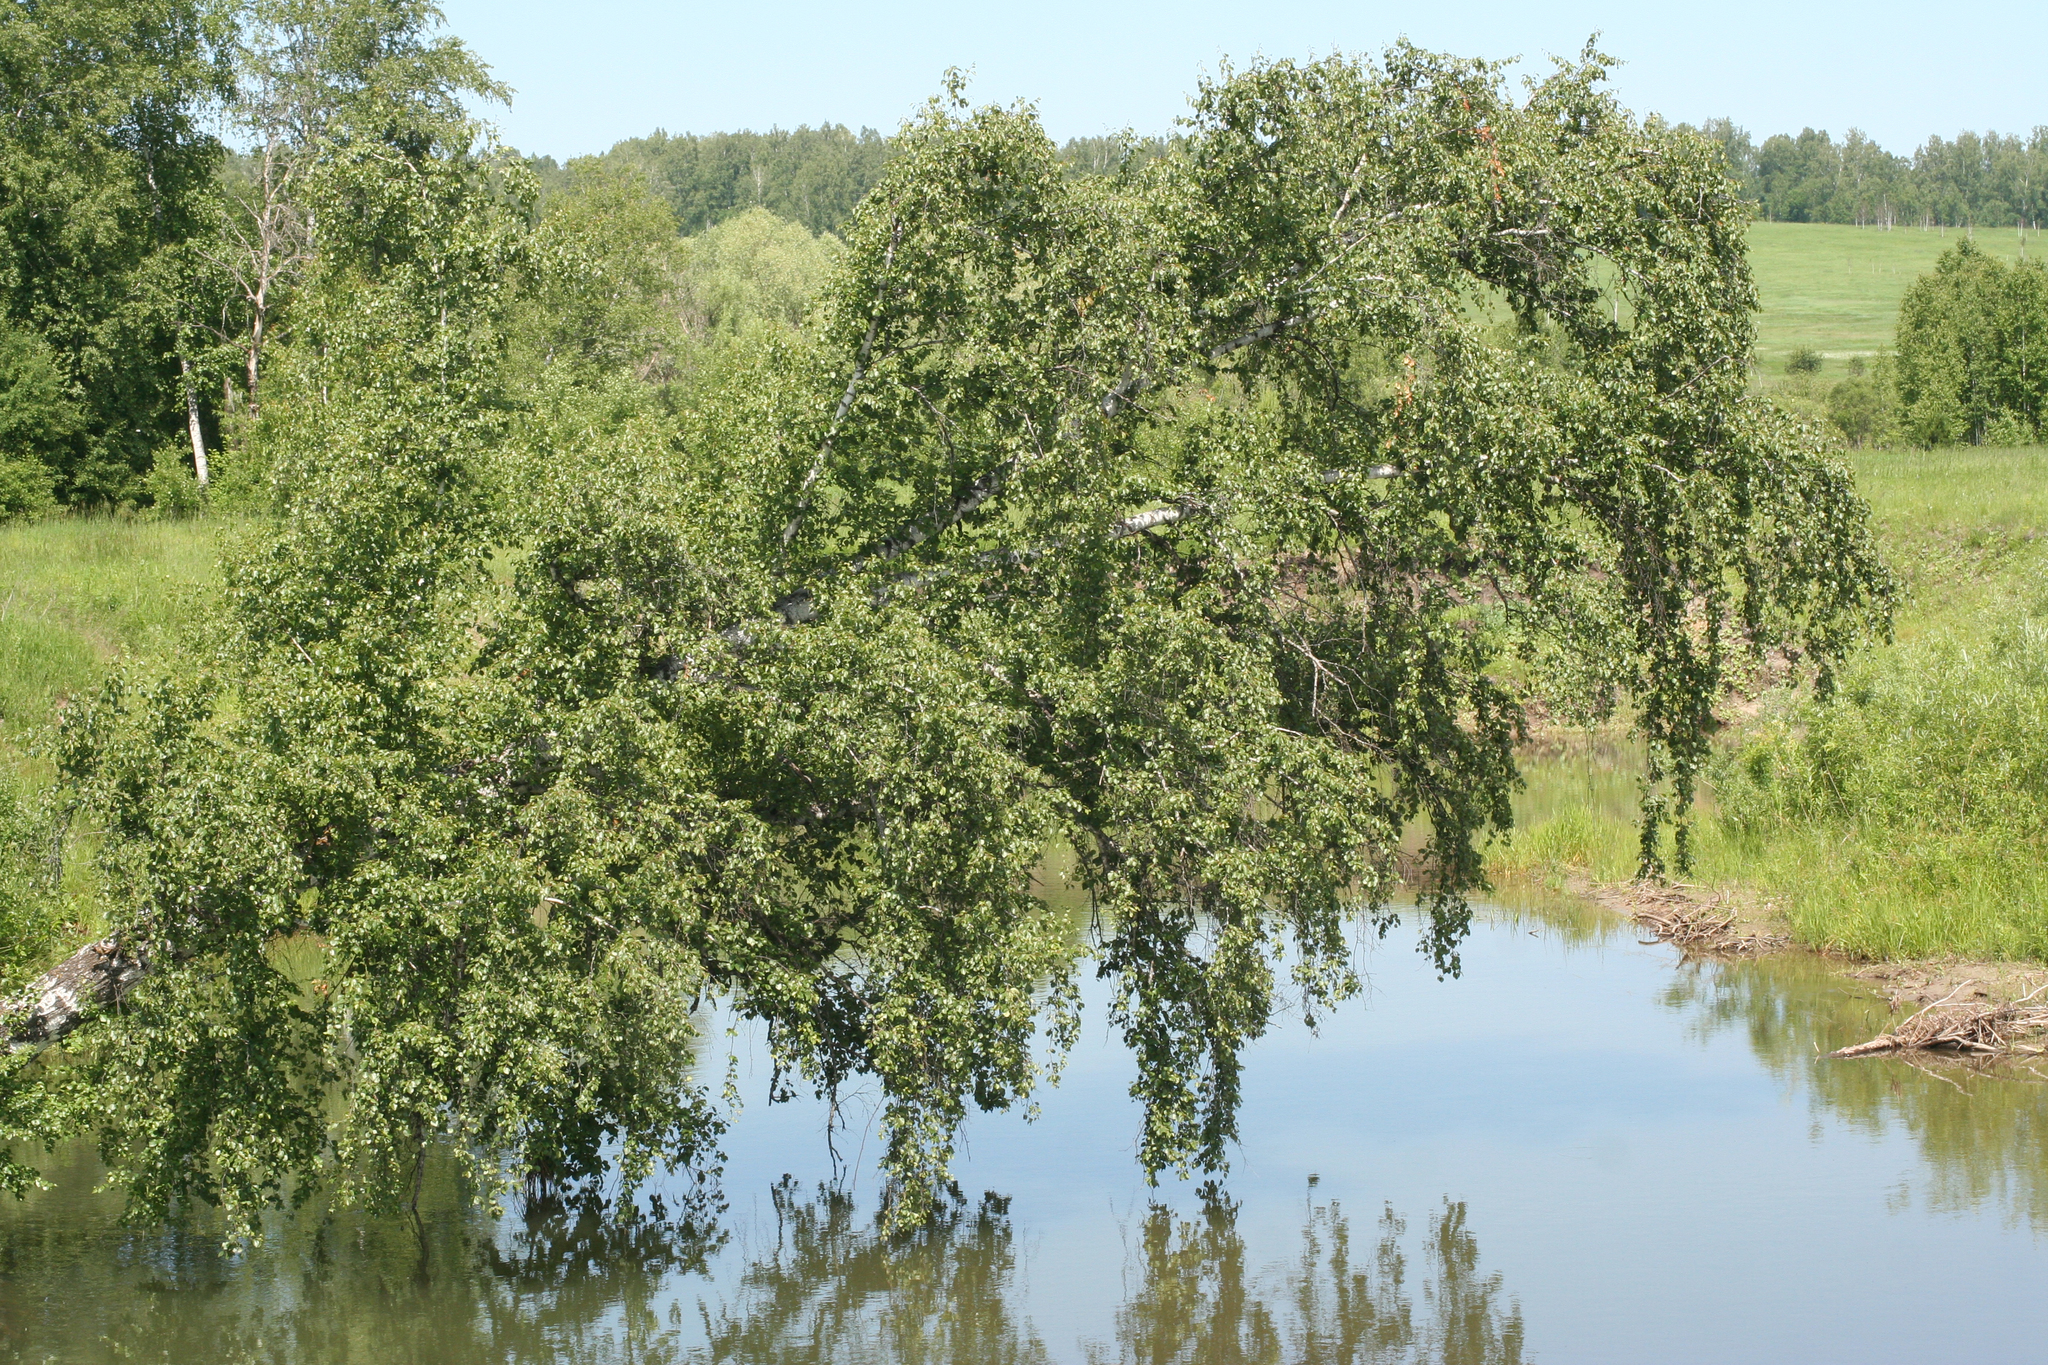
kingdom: Plantae
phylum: Tracheophyta
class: Magnoliopsida
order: Fagales
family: Betulaceae
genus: Betula
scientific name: Betula pendula
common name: Silver birch
